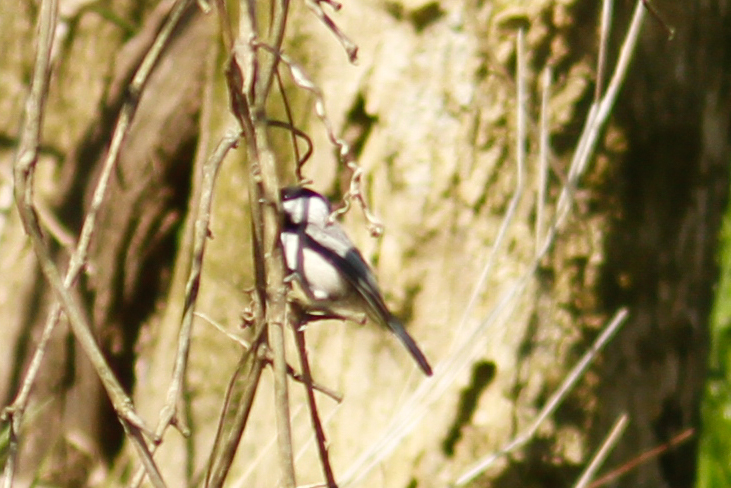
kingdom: Animalia
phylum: Chordata
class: Aves
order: Passeriformes
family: Paridae
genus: Poecile
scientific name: Poecile carolinensis
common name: Carolina chickadee
